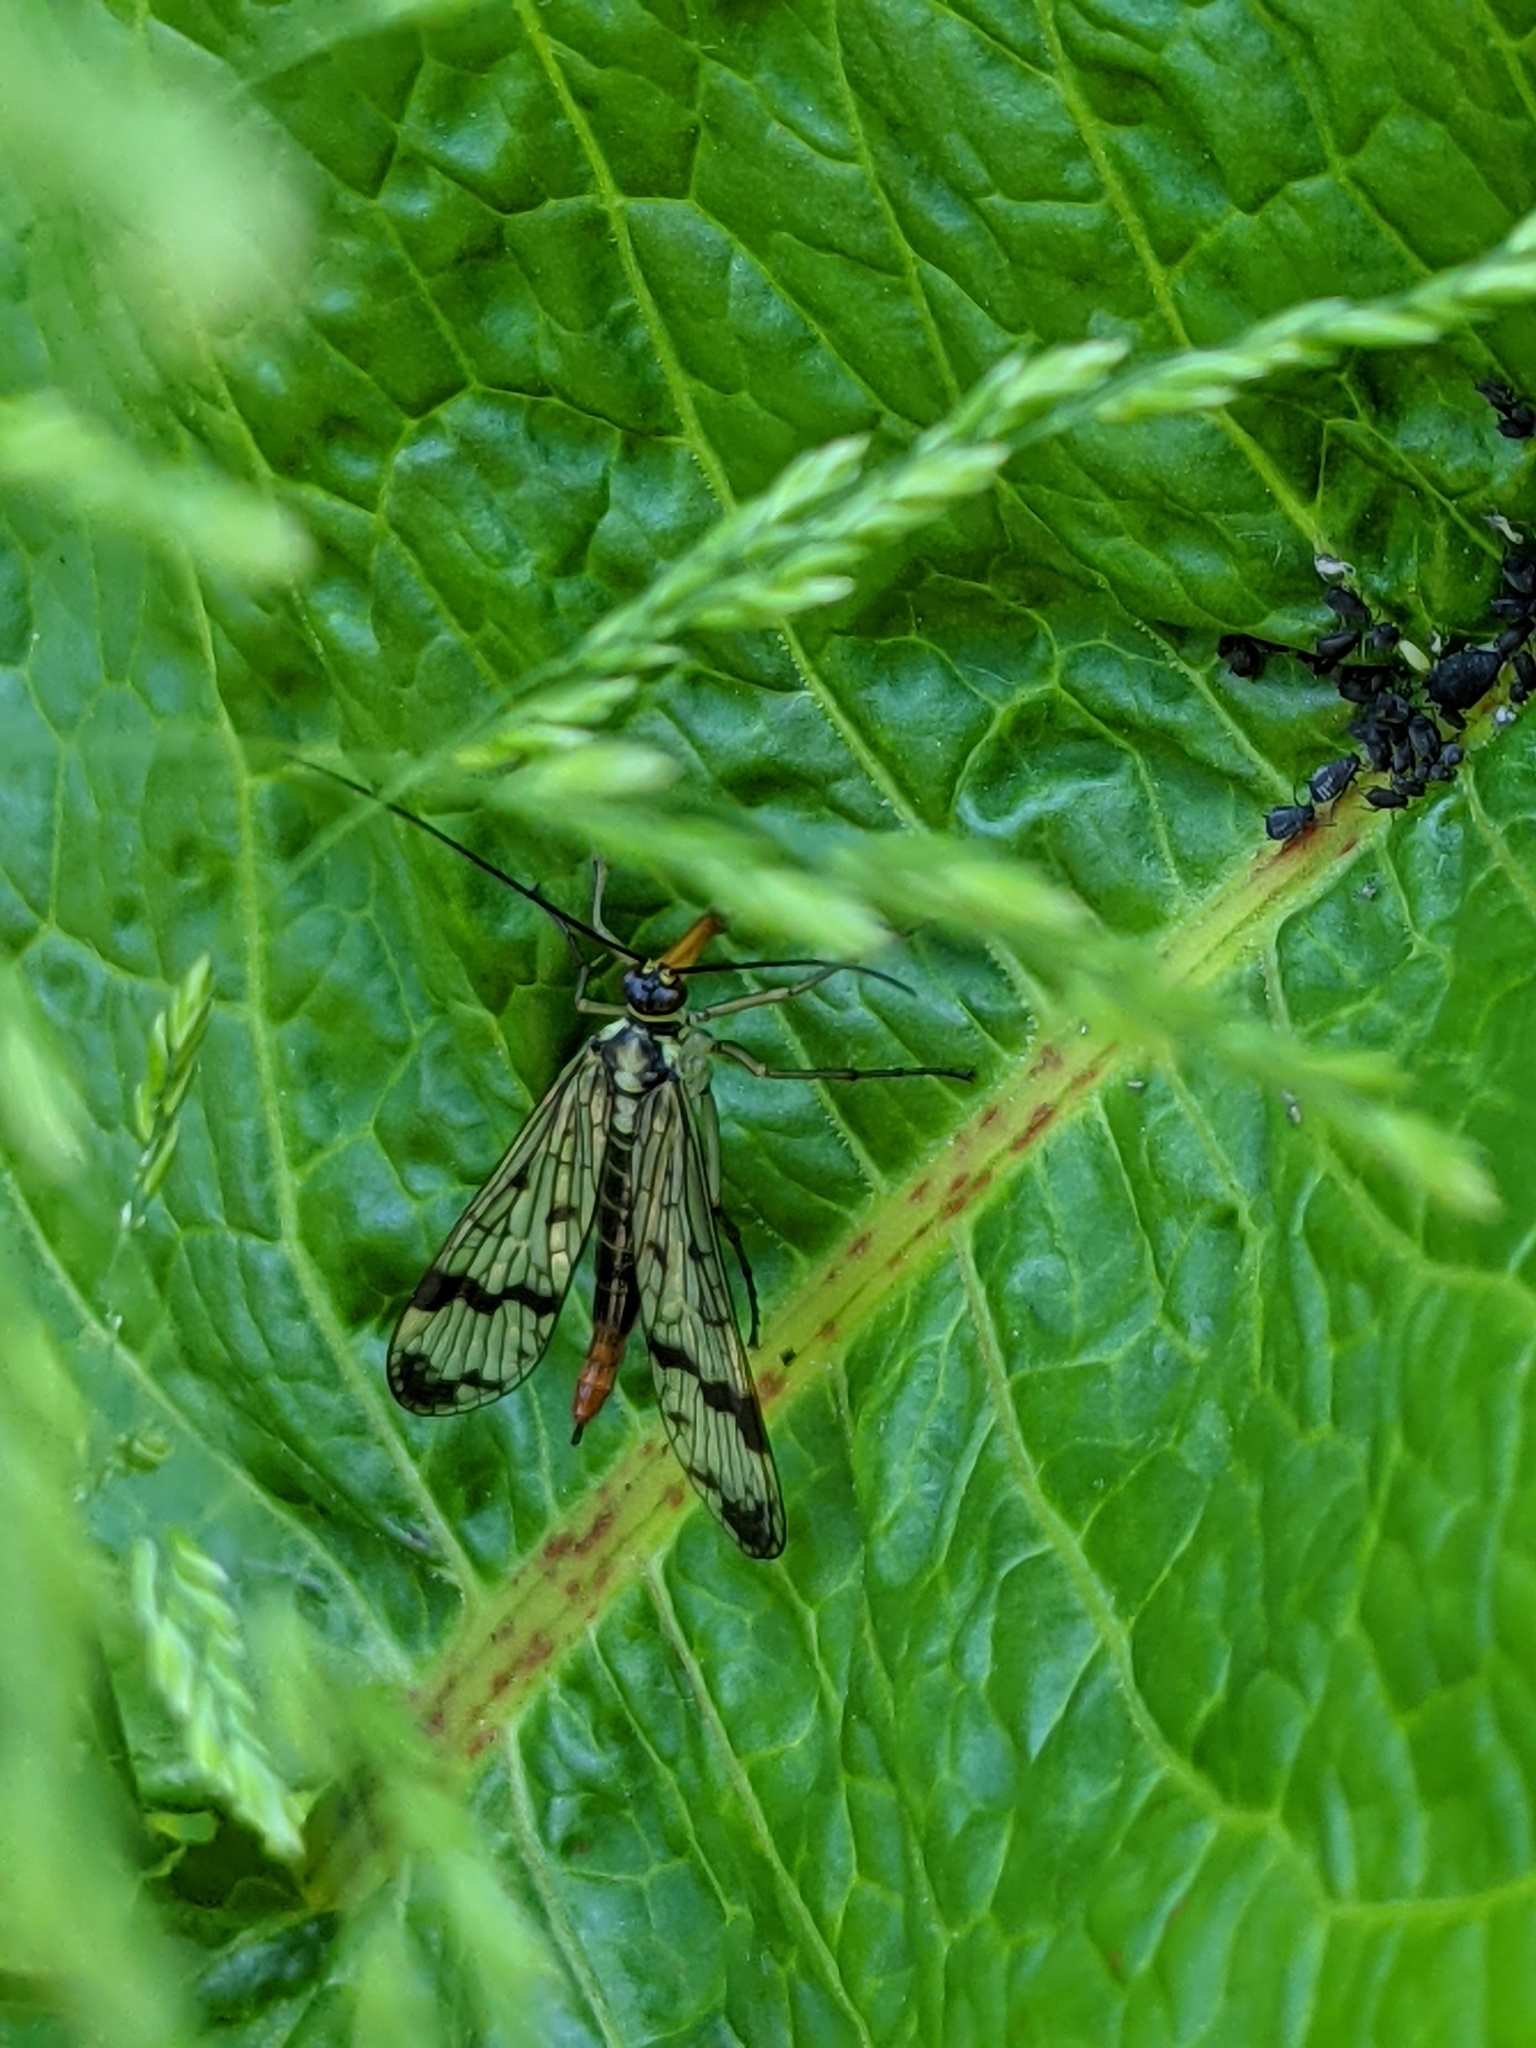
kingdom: Animalia
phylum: Arthropoda
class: Insecta
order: Mecoptera
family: Panorpidae
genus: Panorpa
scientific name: Panorpa communis
